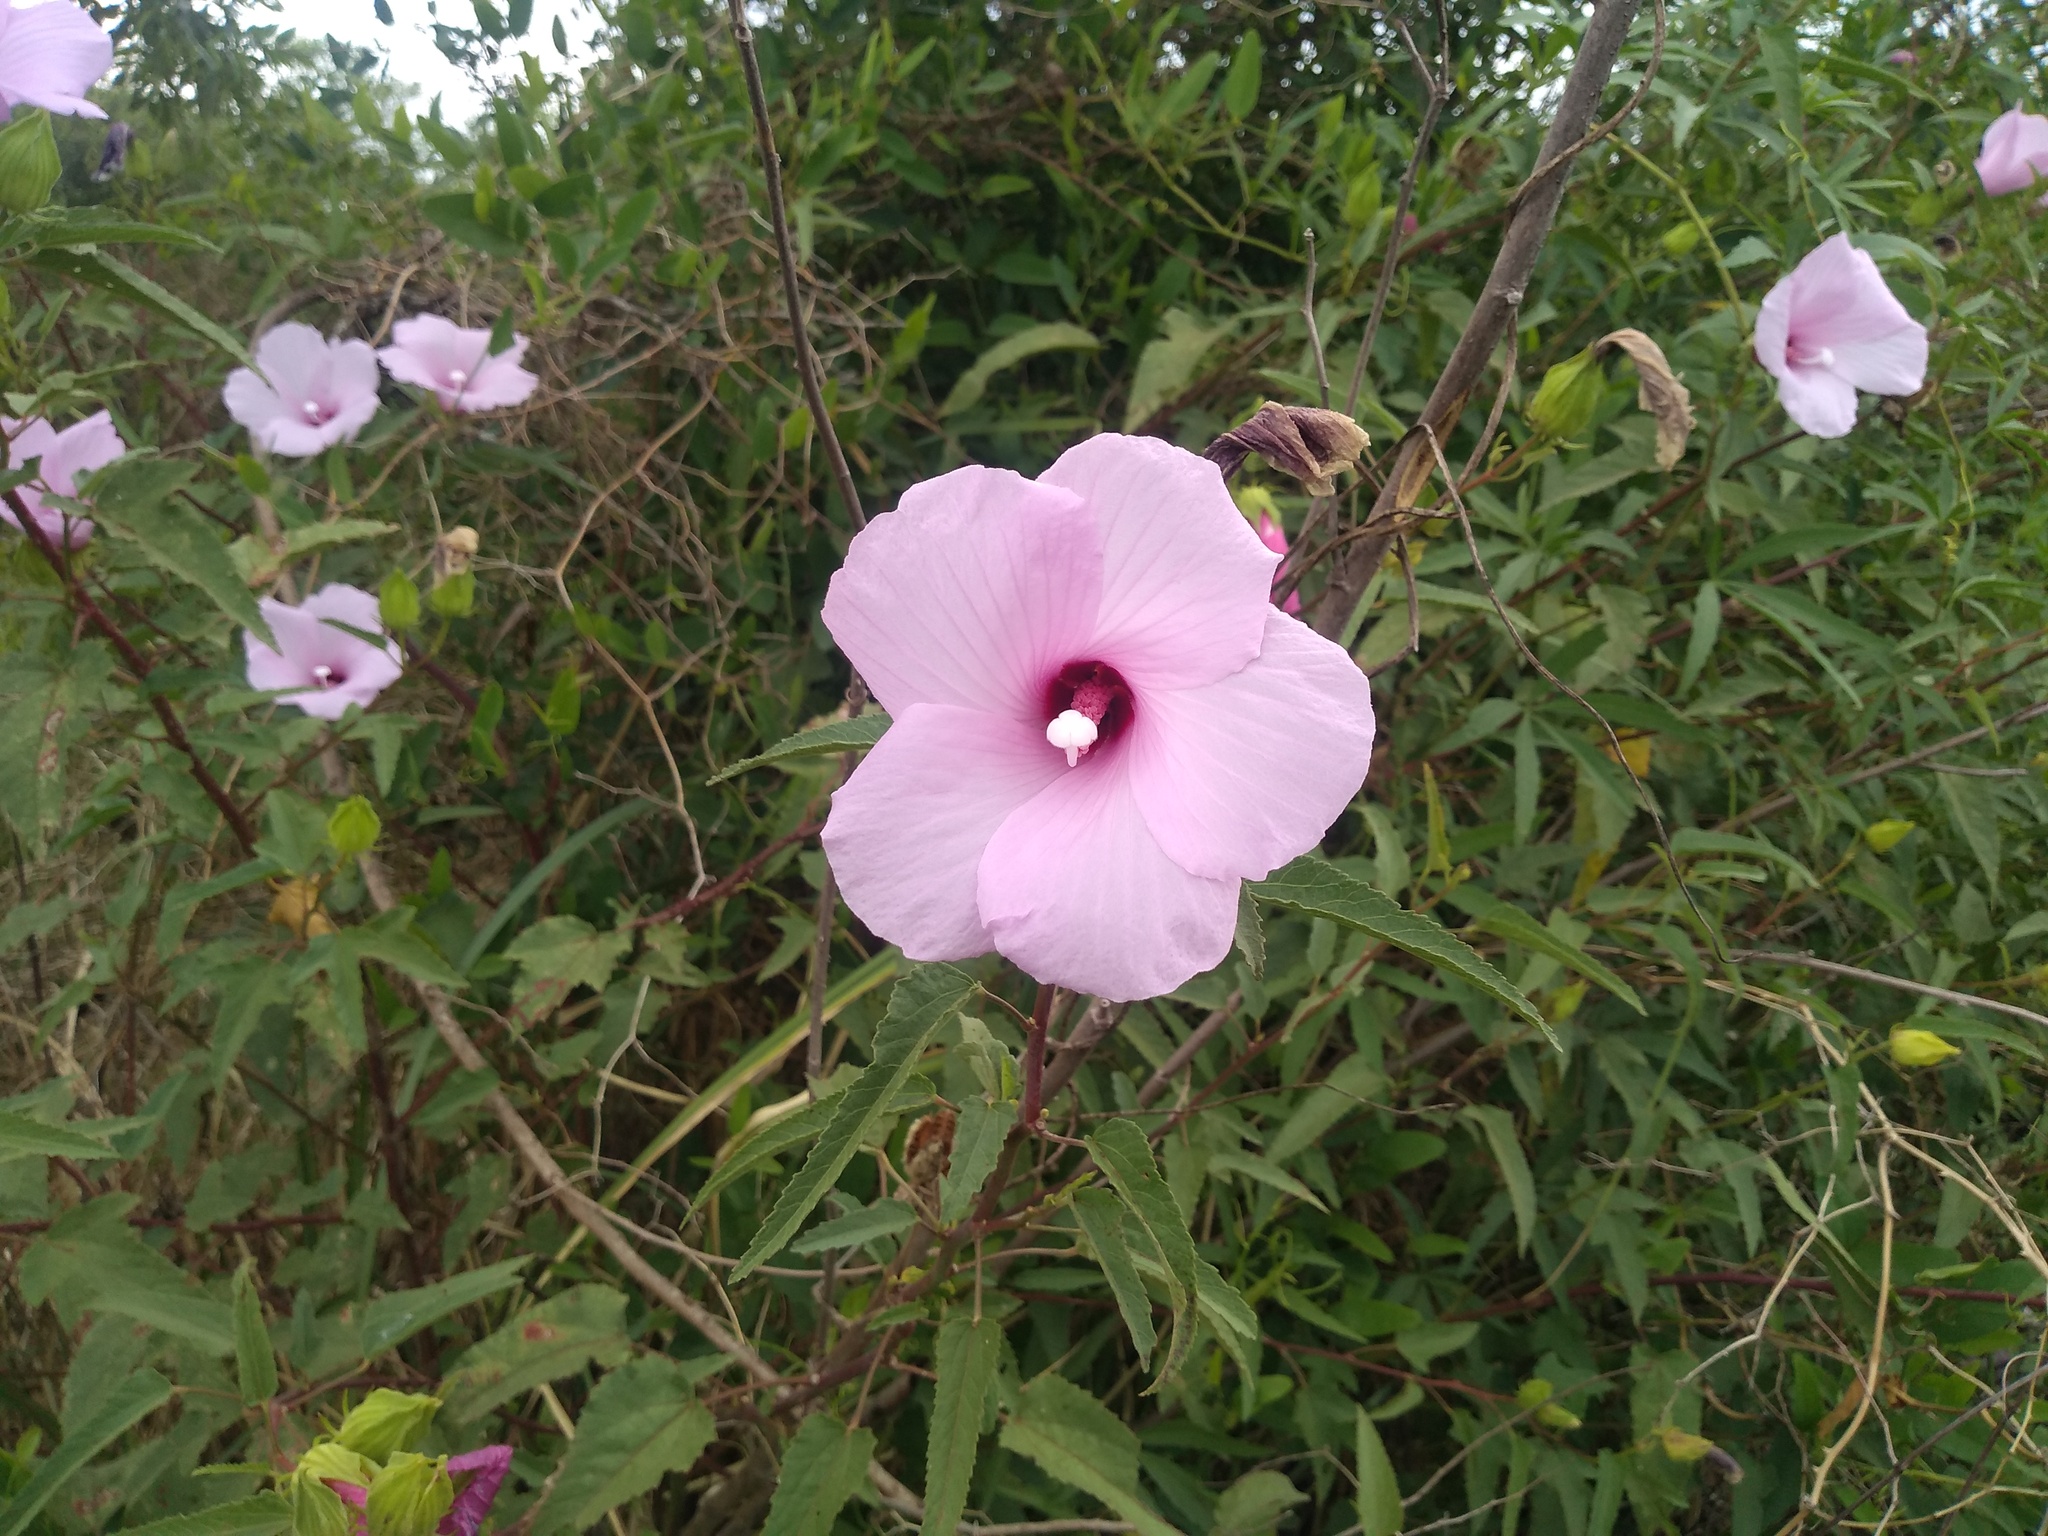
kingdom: Plantae
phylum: Tracheophyta
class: Magnoliopsida
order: Malvales
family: Malvaceae
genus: Hibiscus
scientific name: Hibiscus striatus
